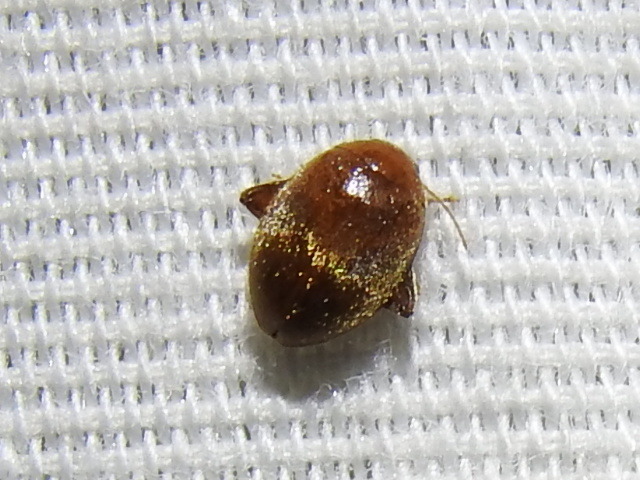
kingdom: Animalia
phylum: Arthropoda
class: Insecta
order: Coleoptera
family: Scirtidae
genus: Scirtes
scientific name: Scirtes tibialis
